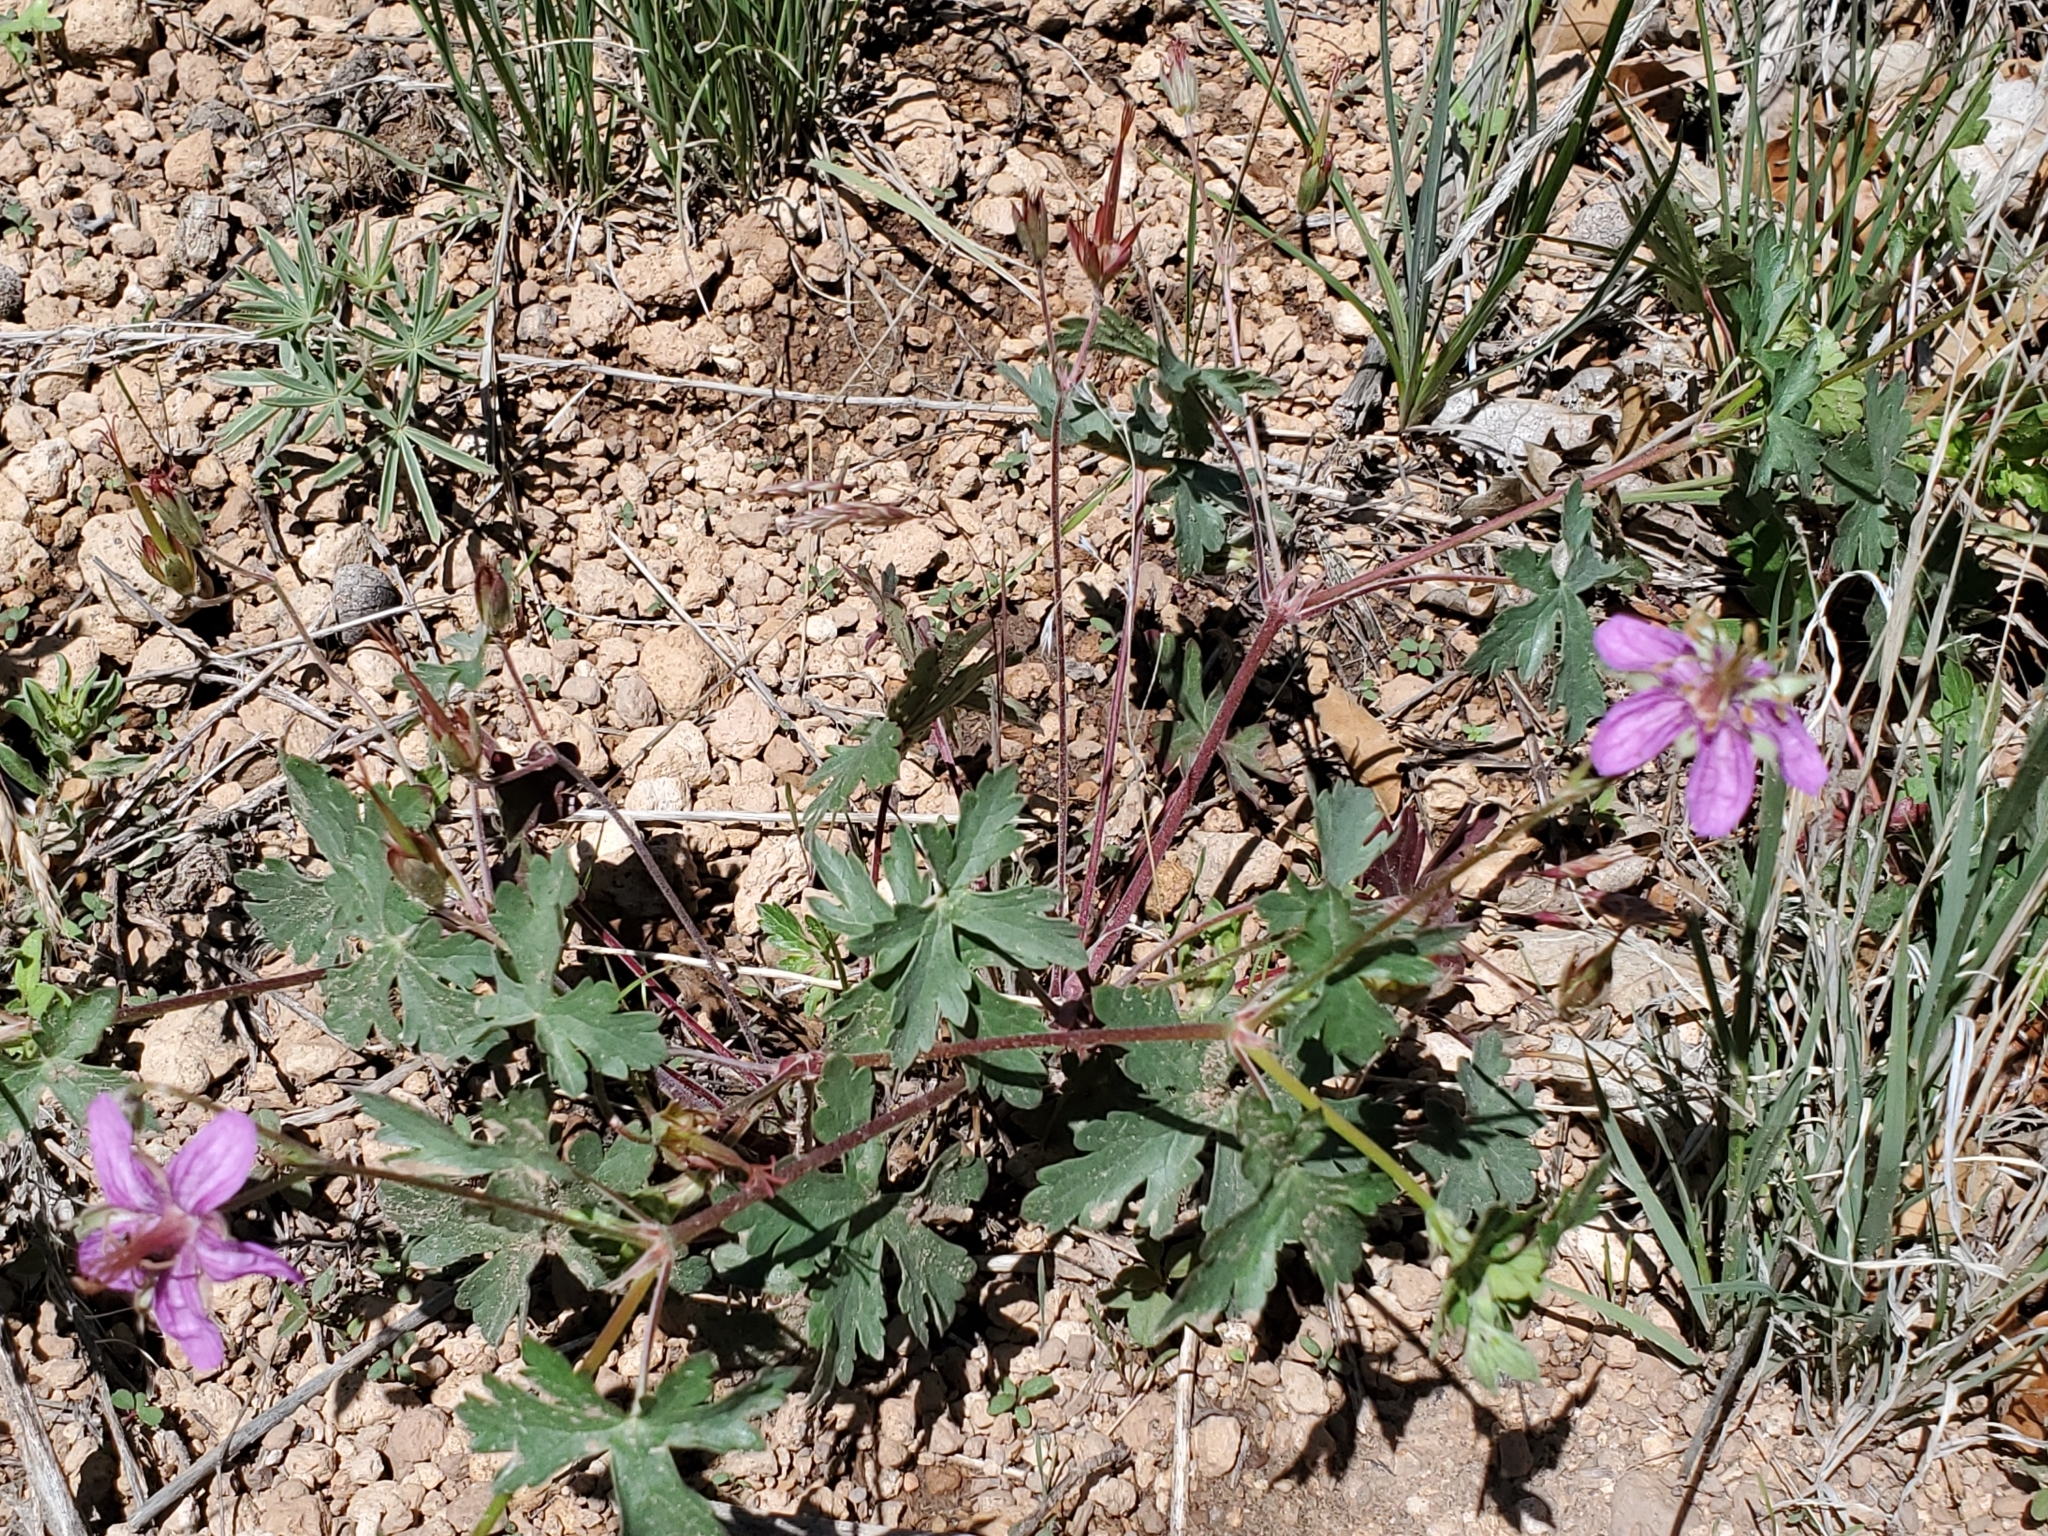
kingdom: Plantae
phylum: Tracheophyta
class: Magnoliopsida
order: Geraniales
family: Geraniaceae
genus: Geranium
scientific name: Geranium caespitosum
